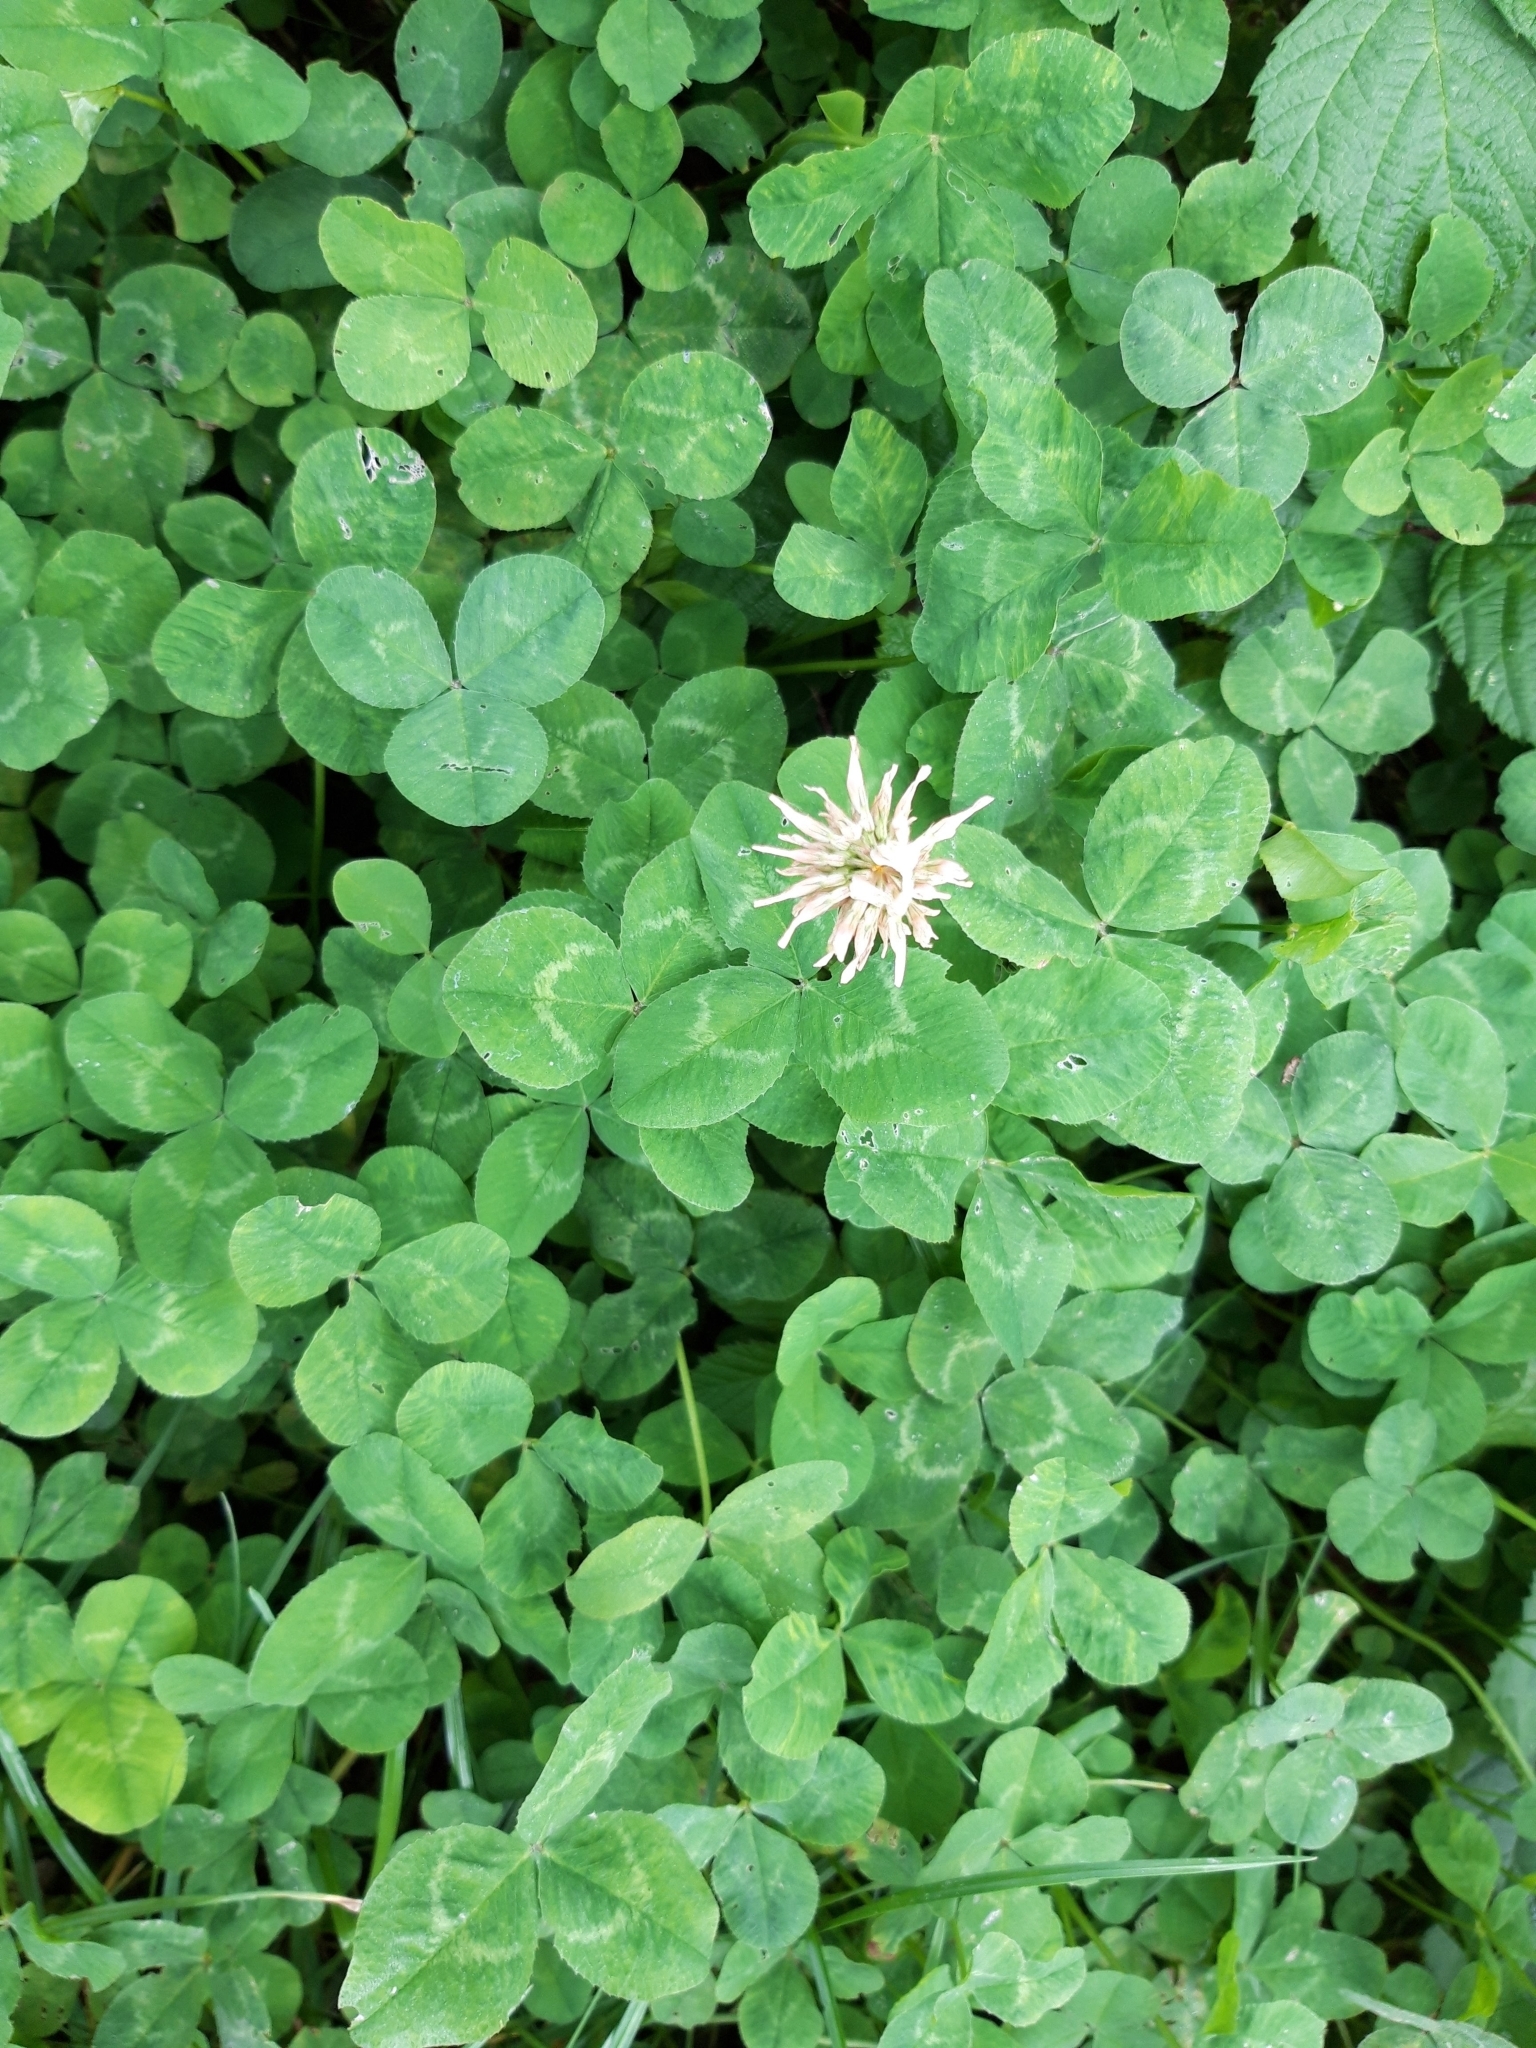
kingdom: Plantae
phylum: Tracheophyta
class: Magnoliopsida
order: Fabales
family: Fabaceae
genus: Trifolium
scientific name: Trifolium repens
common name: White clover
